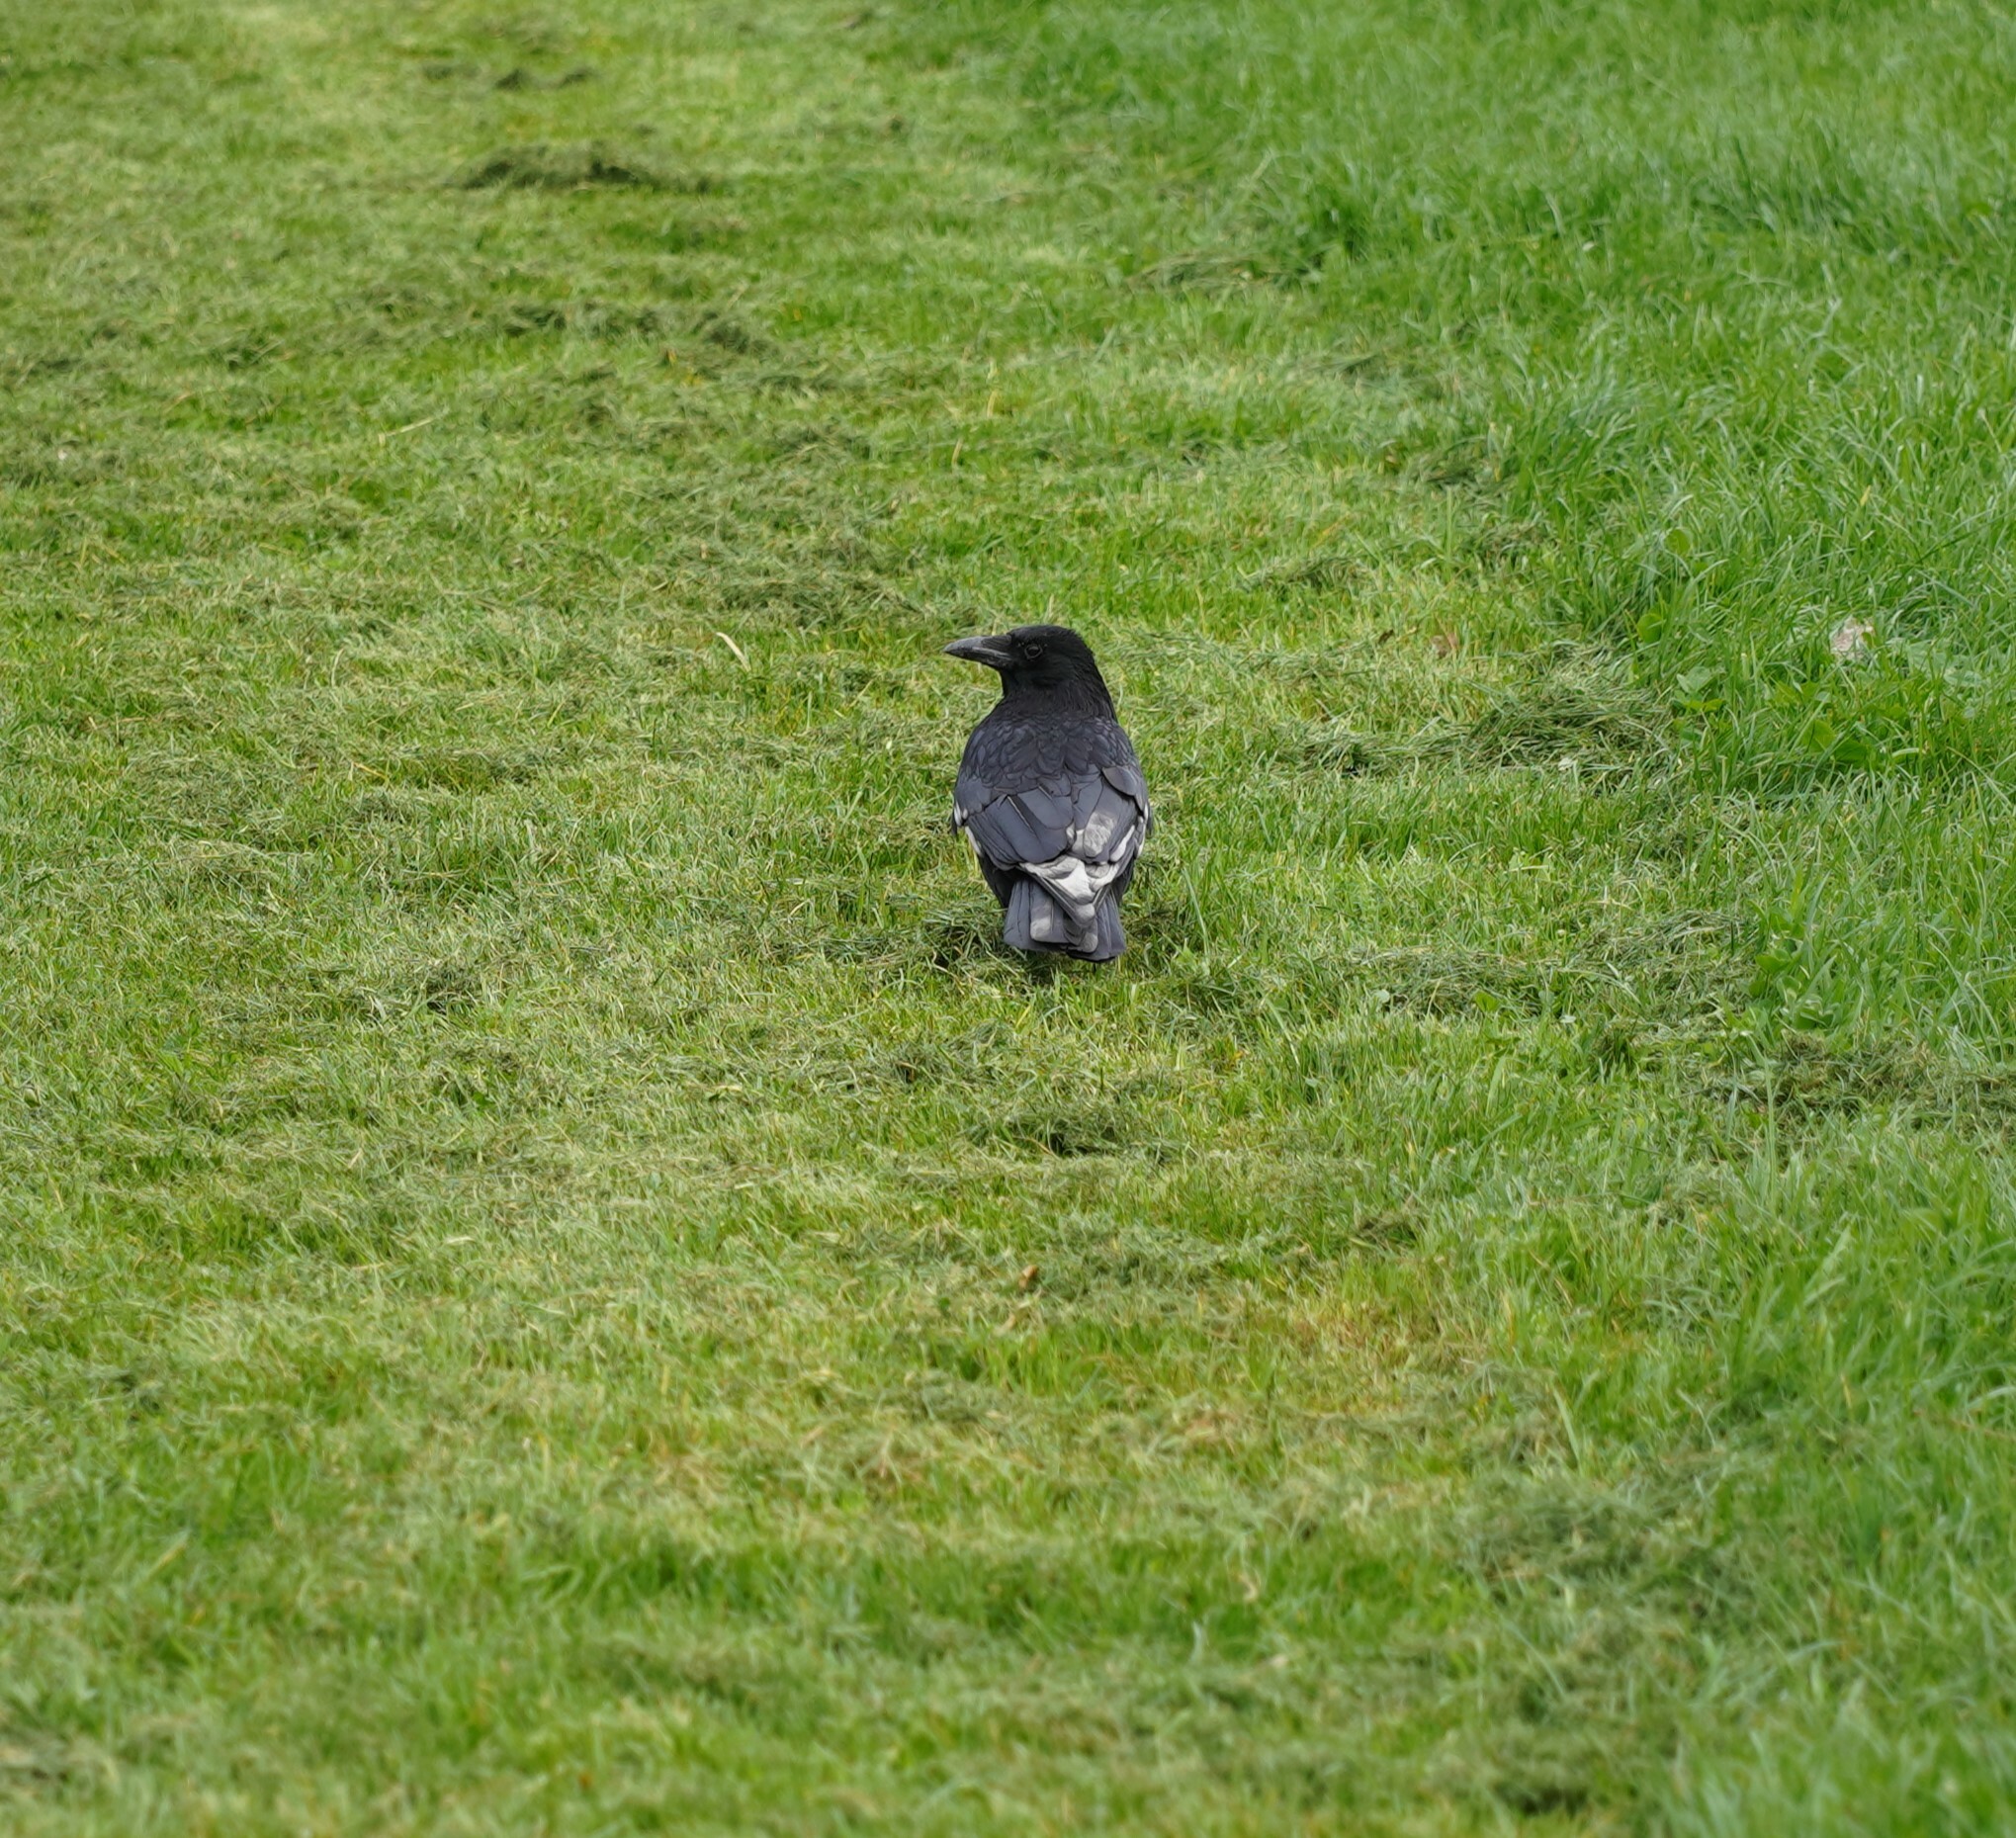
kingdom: Animalia
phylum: Chordata
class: Aves
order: Passeriformes
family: Corvidae
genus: Corvus
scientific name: Corvus corone
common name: Carrion crow
